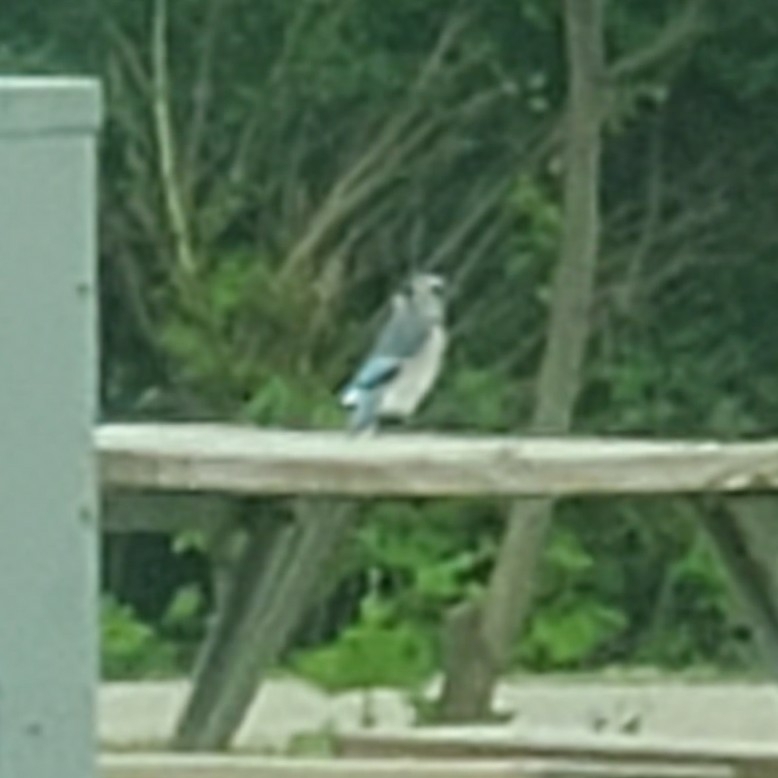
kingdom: Animalia
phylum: Chordata
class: Aves
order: Passeriformes
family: Corvidae
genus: Cyanocitta
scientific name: Cyanocitta cristata
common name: Blue jay
